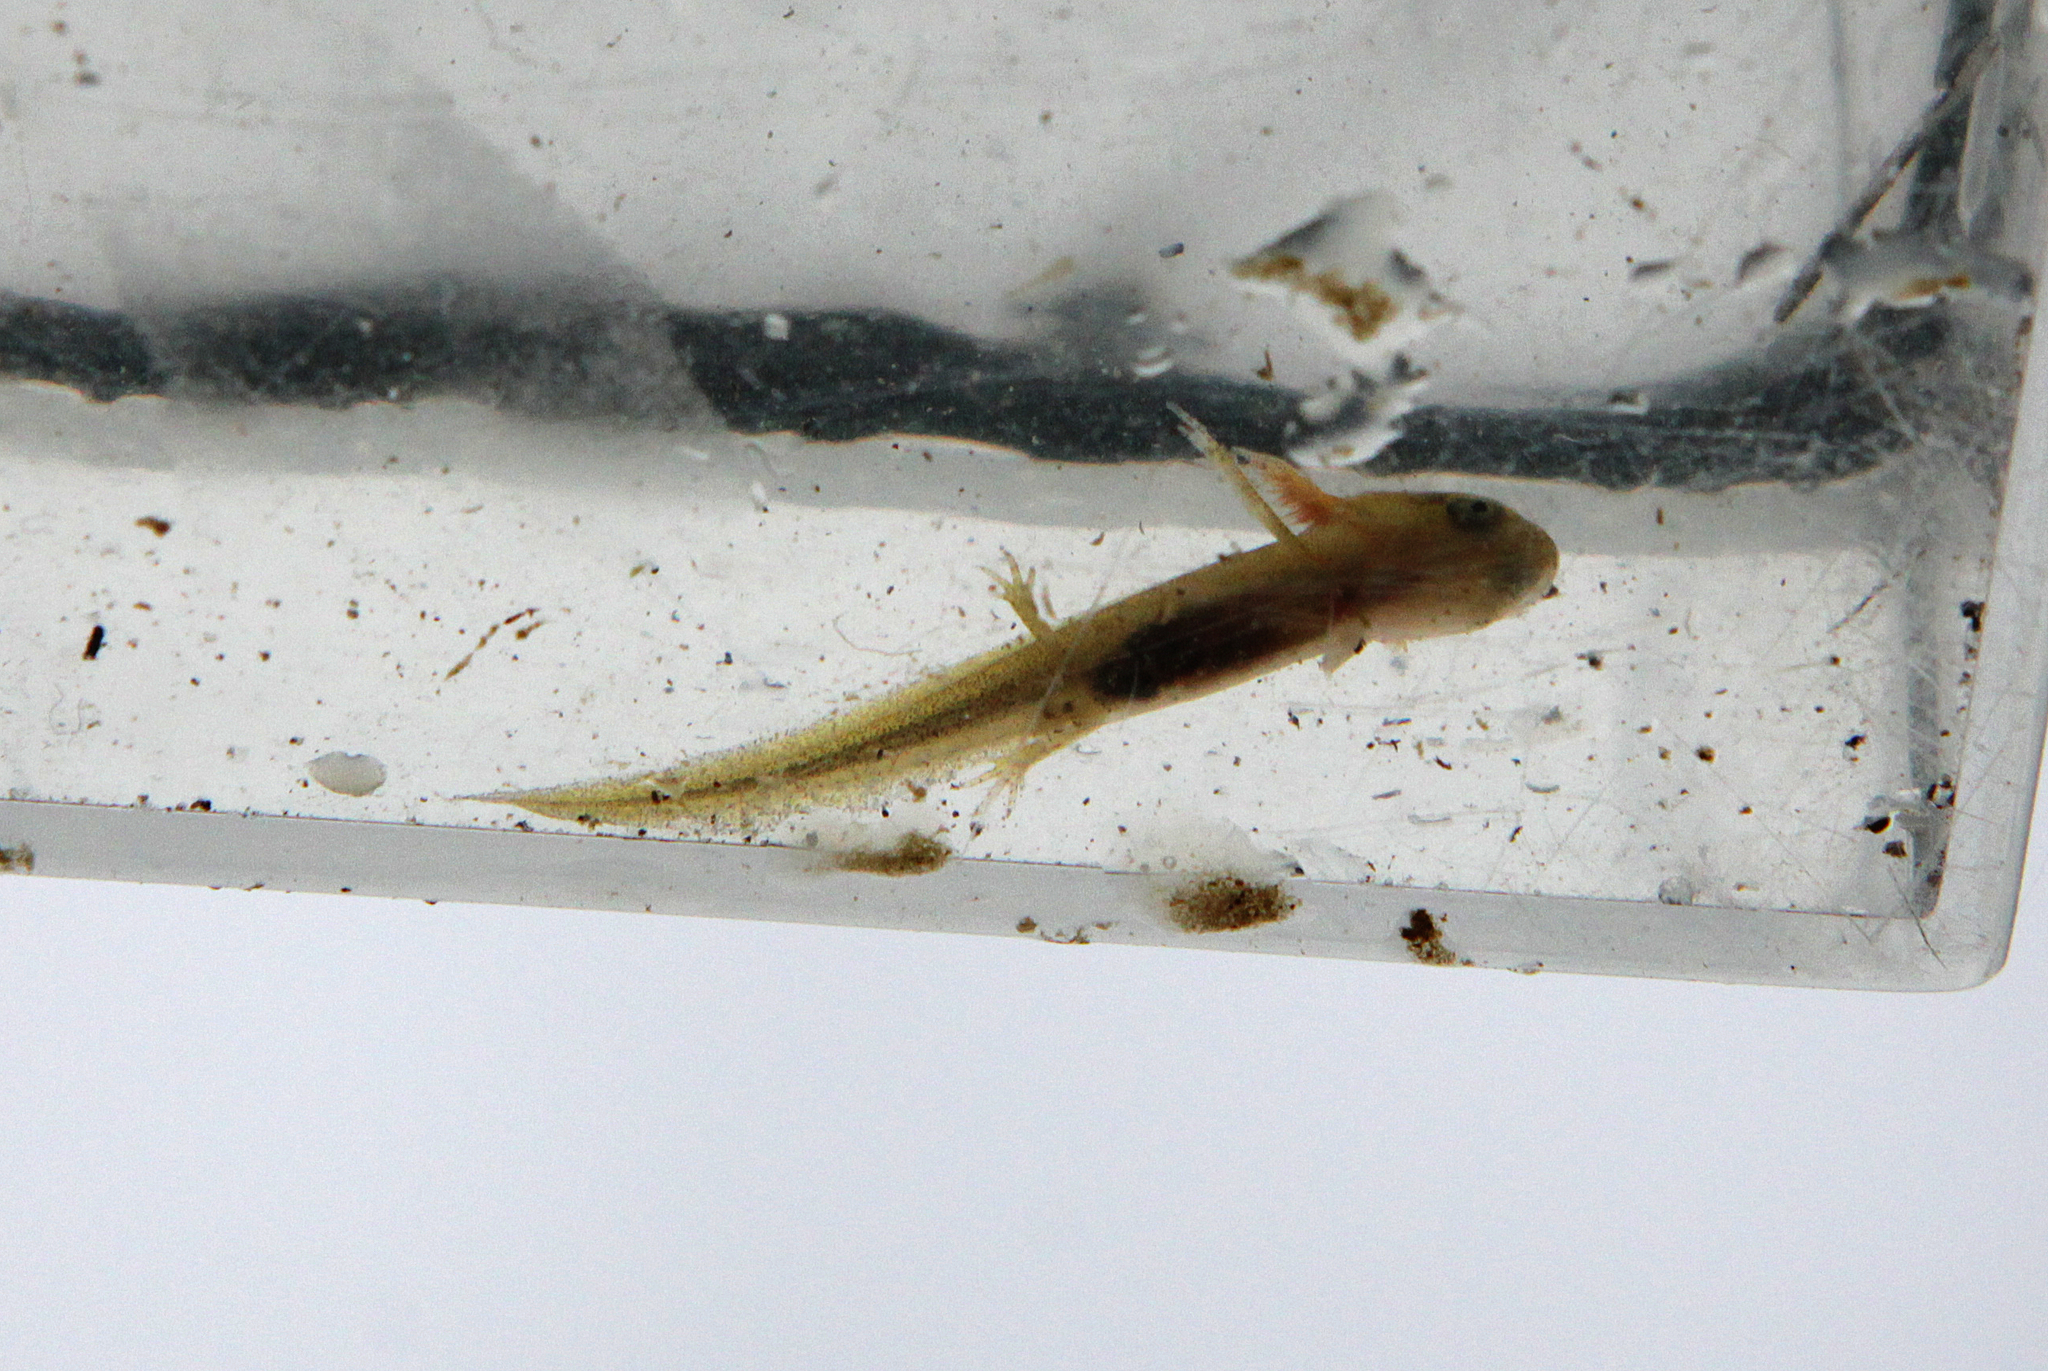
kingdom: Animalia
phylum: Chordata
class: Amphibia
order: Caudata
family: Salamandridae
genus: Lissotriton
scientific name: Lissotriton
